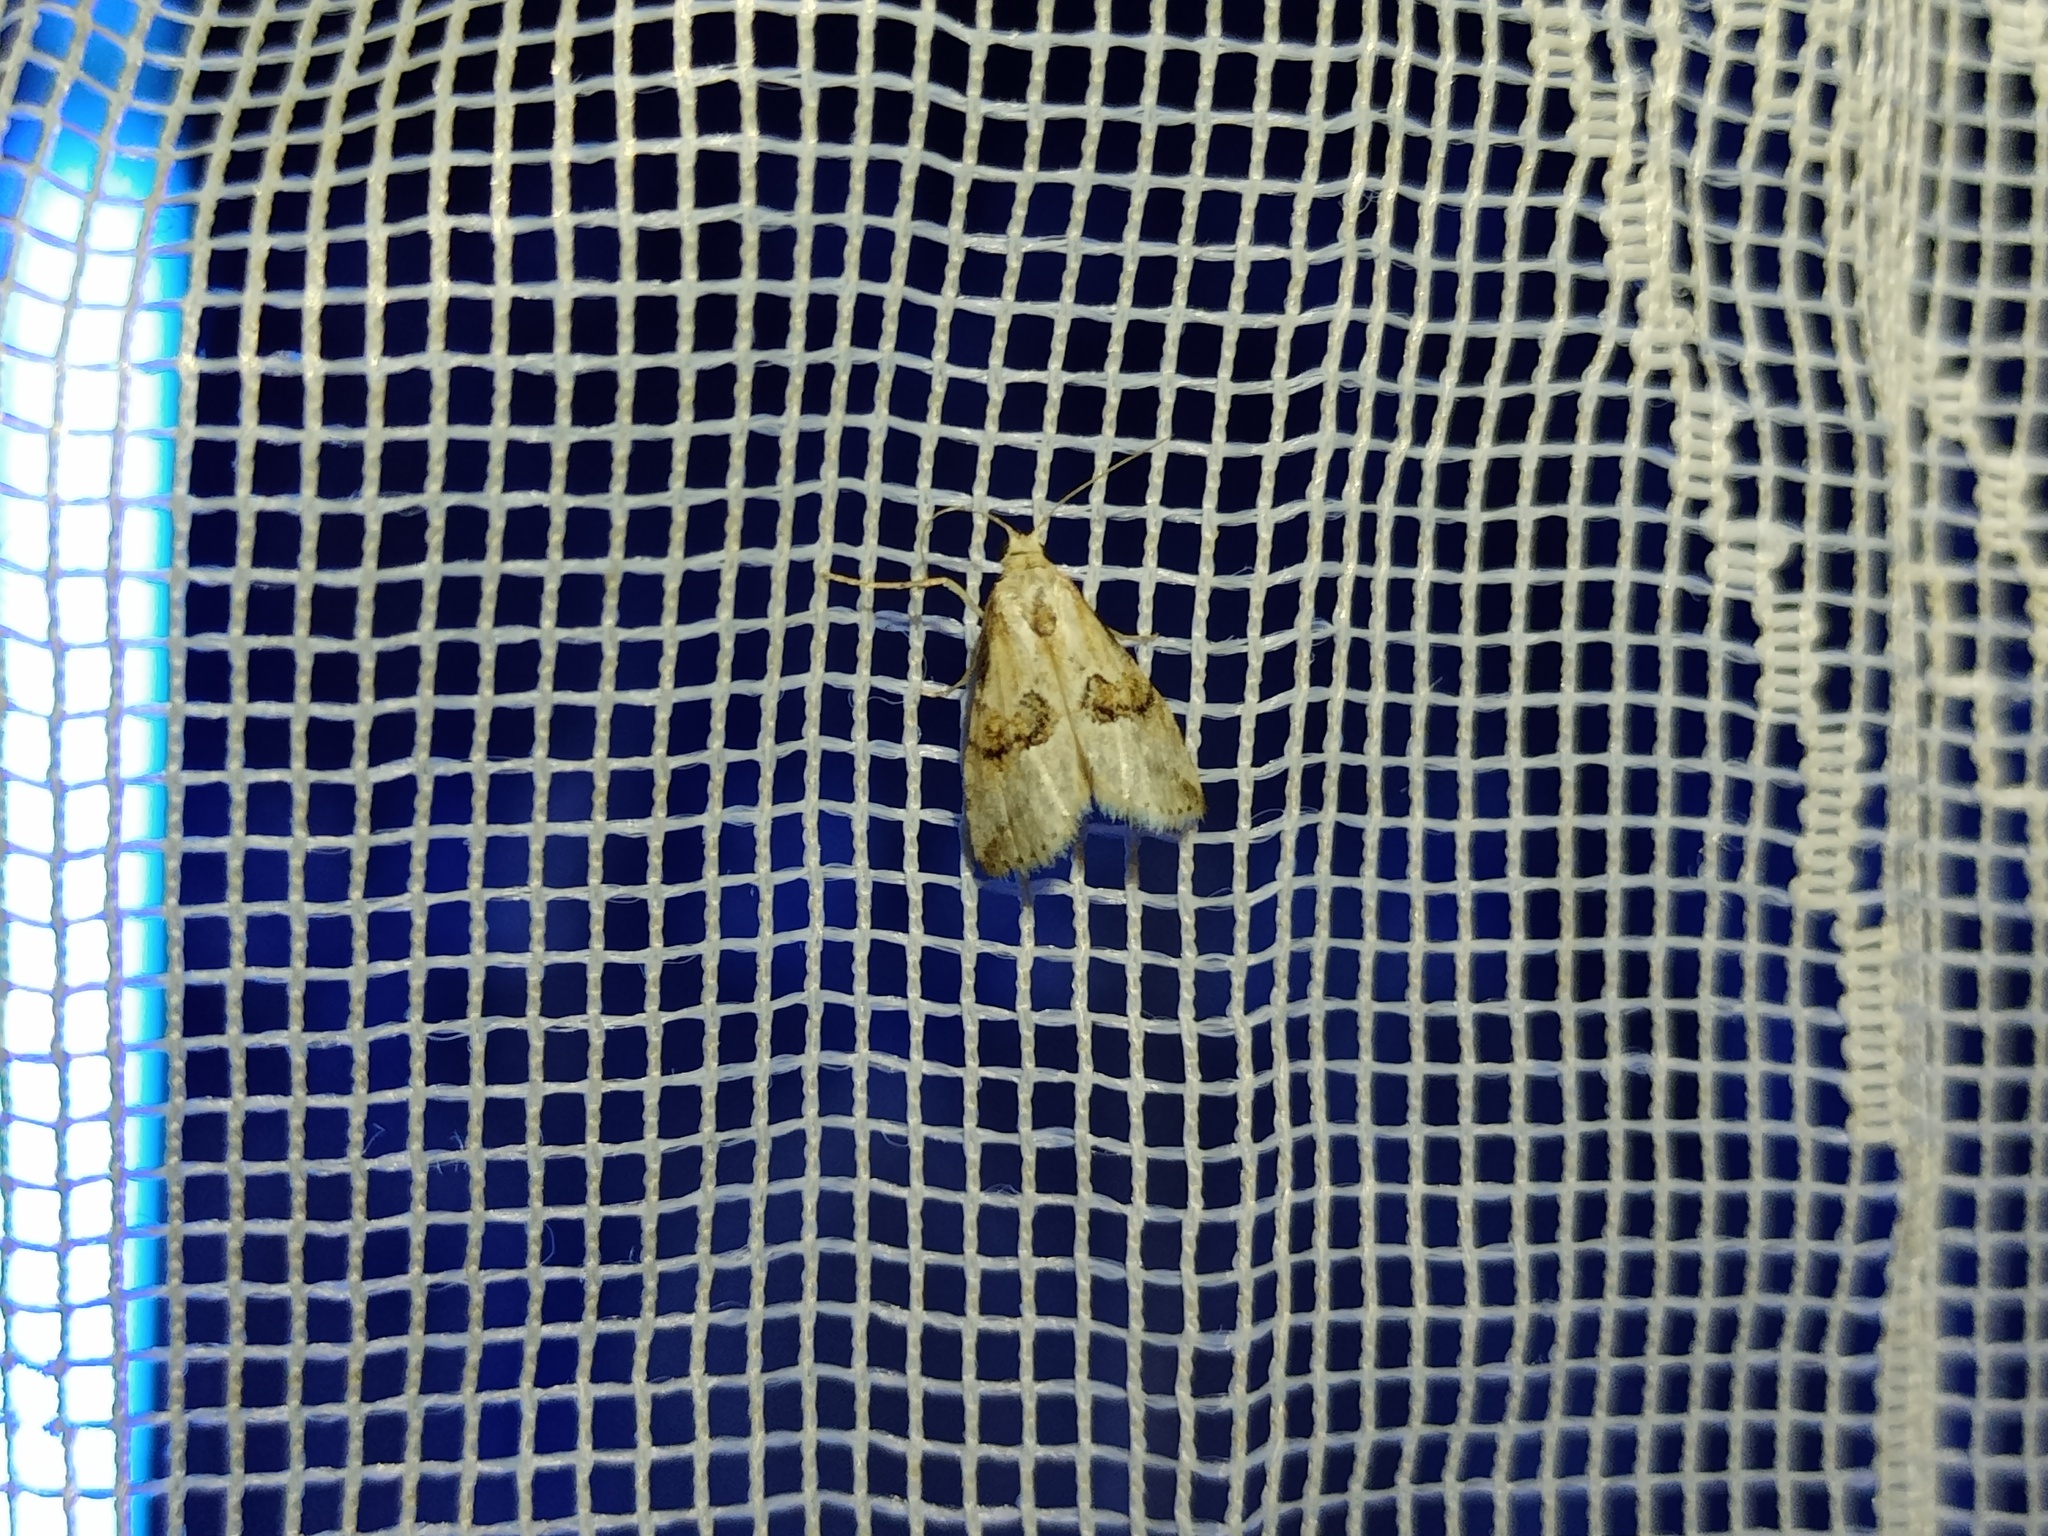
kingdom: Animalia
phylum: Arthropoda
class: Insecta
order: Lepidoptera
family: Erebidae
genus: Zebeeba
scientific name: Zebeeba falsalis
